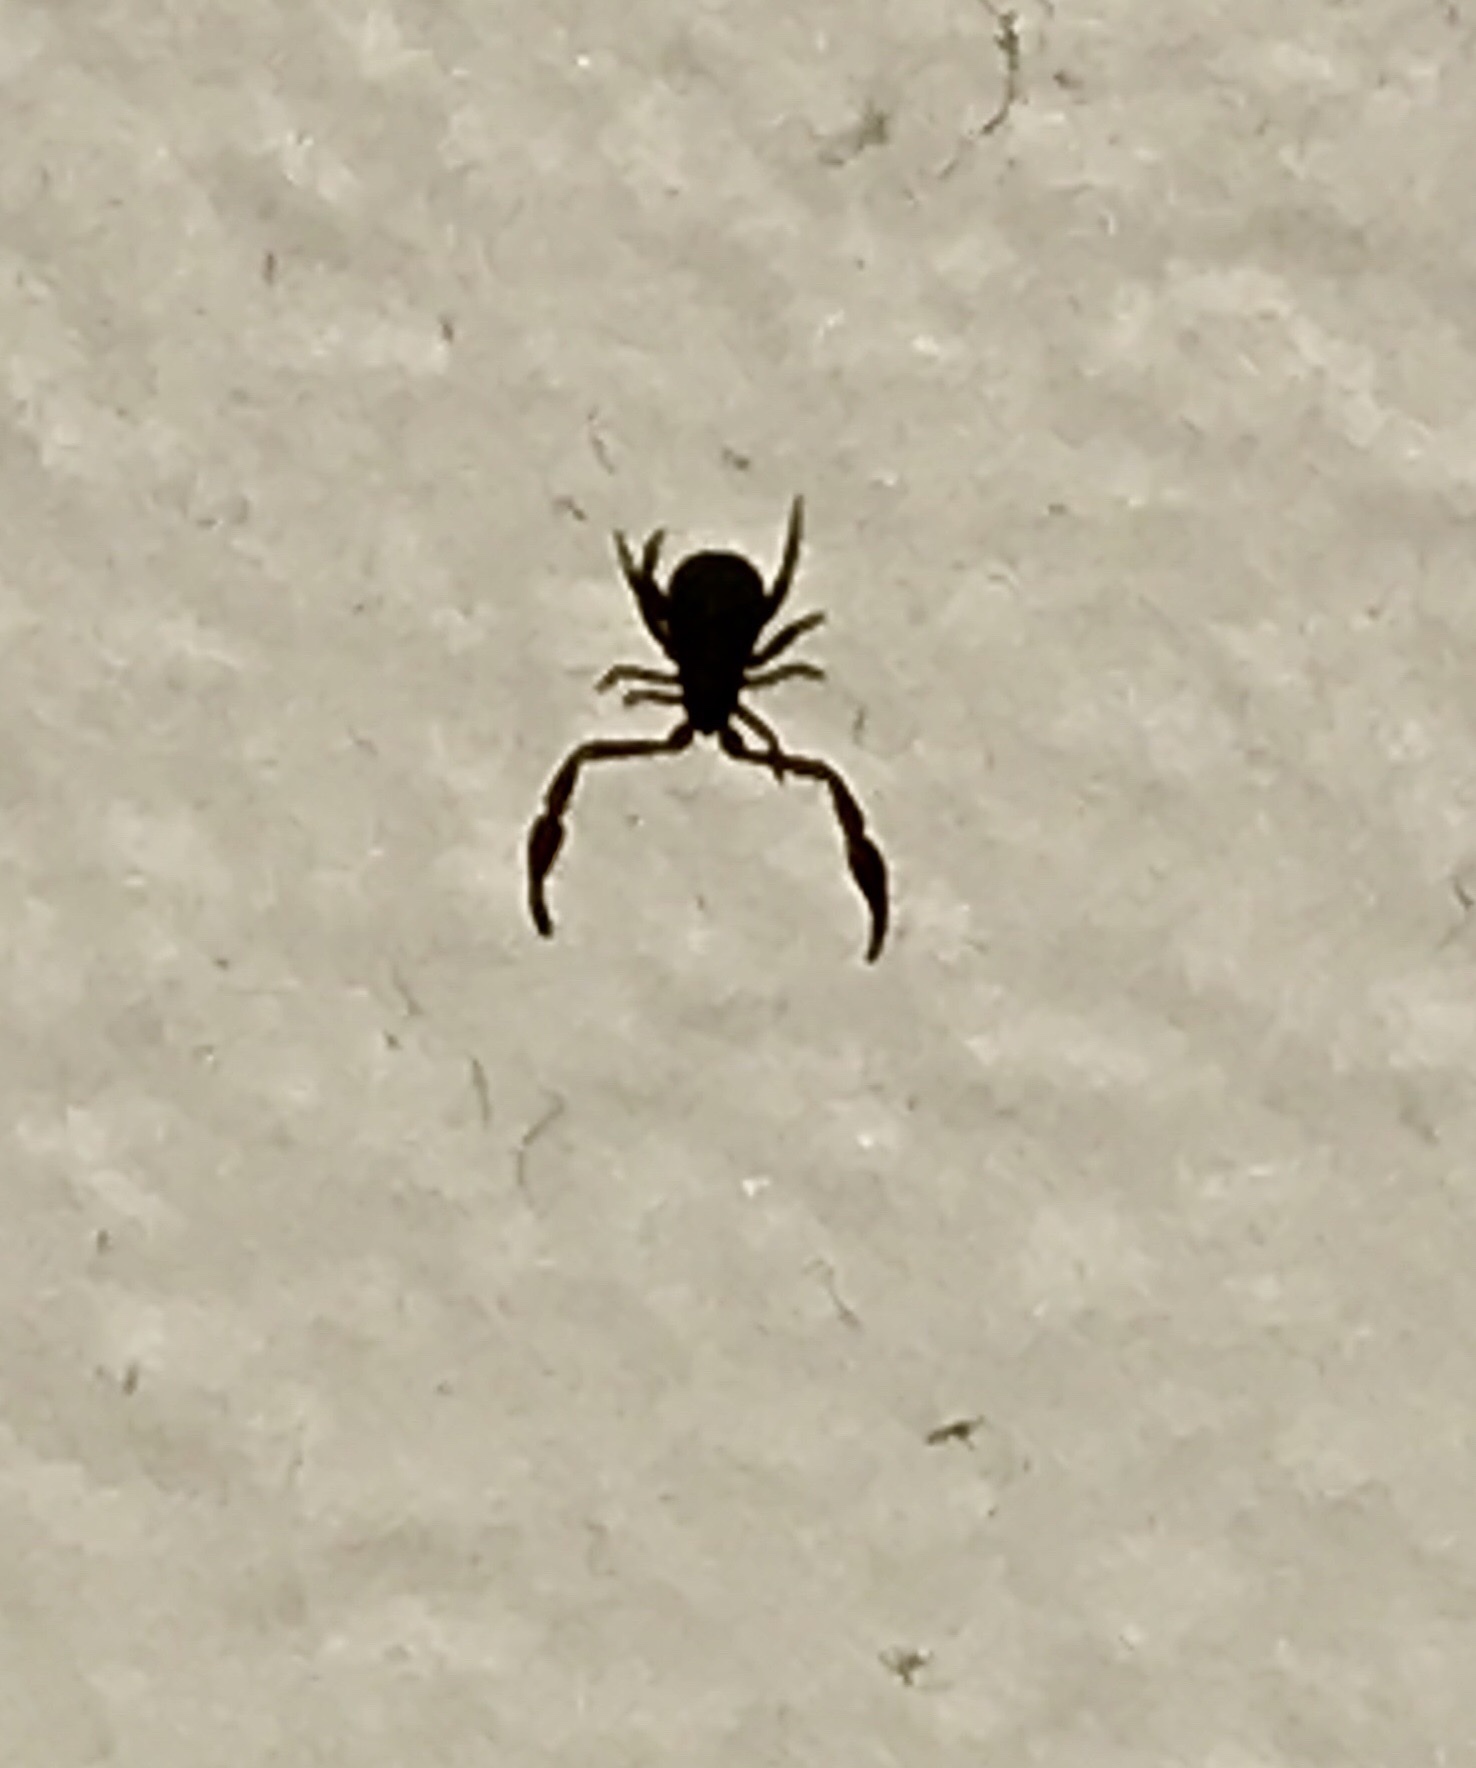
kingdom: Animalia
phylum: Arthropoda
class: Arachnida
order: Pseudoscorpiones
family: Cheliferidae
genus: Chelifer
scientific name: Chelifer cancroides
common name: House false-scorpion
